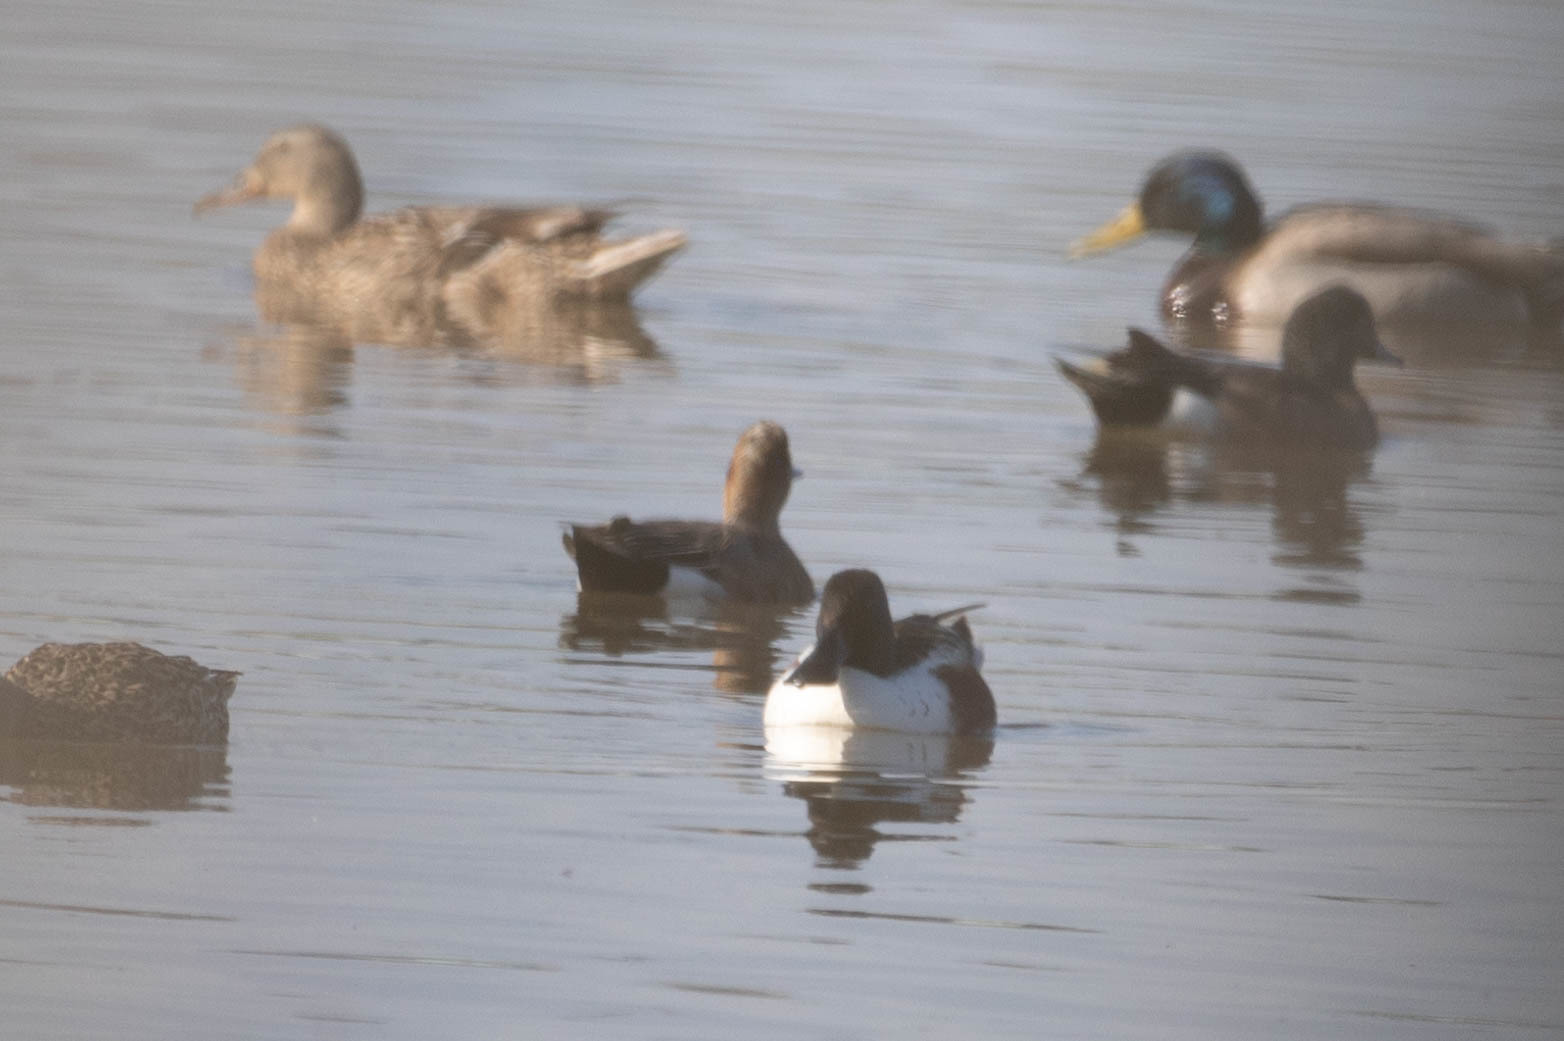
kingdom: Animalia
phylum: Chordata
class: Aves
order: Anseriformes
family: Anatidae
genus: Spatula
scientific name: Spatula clypeata
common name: Northern shoveler
